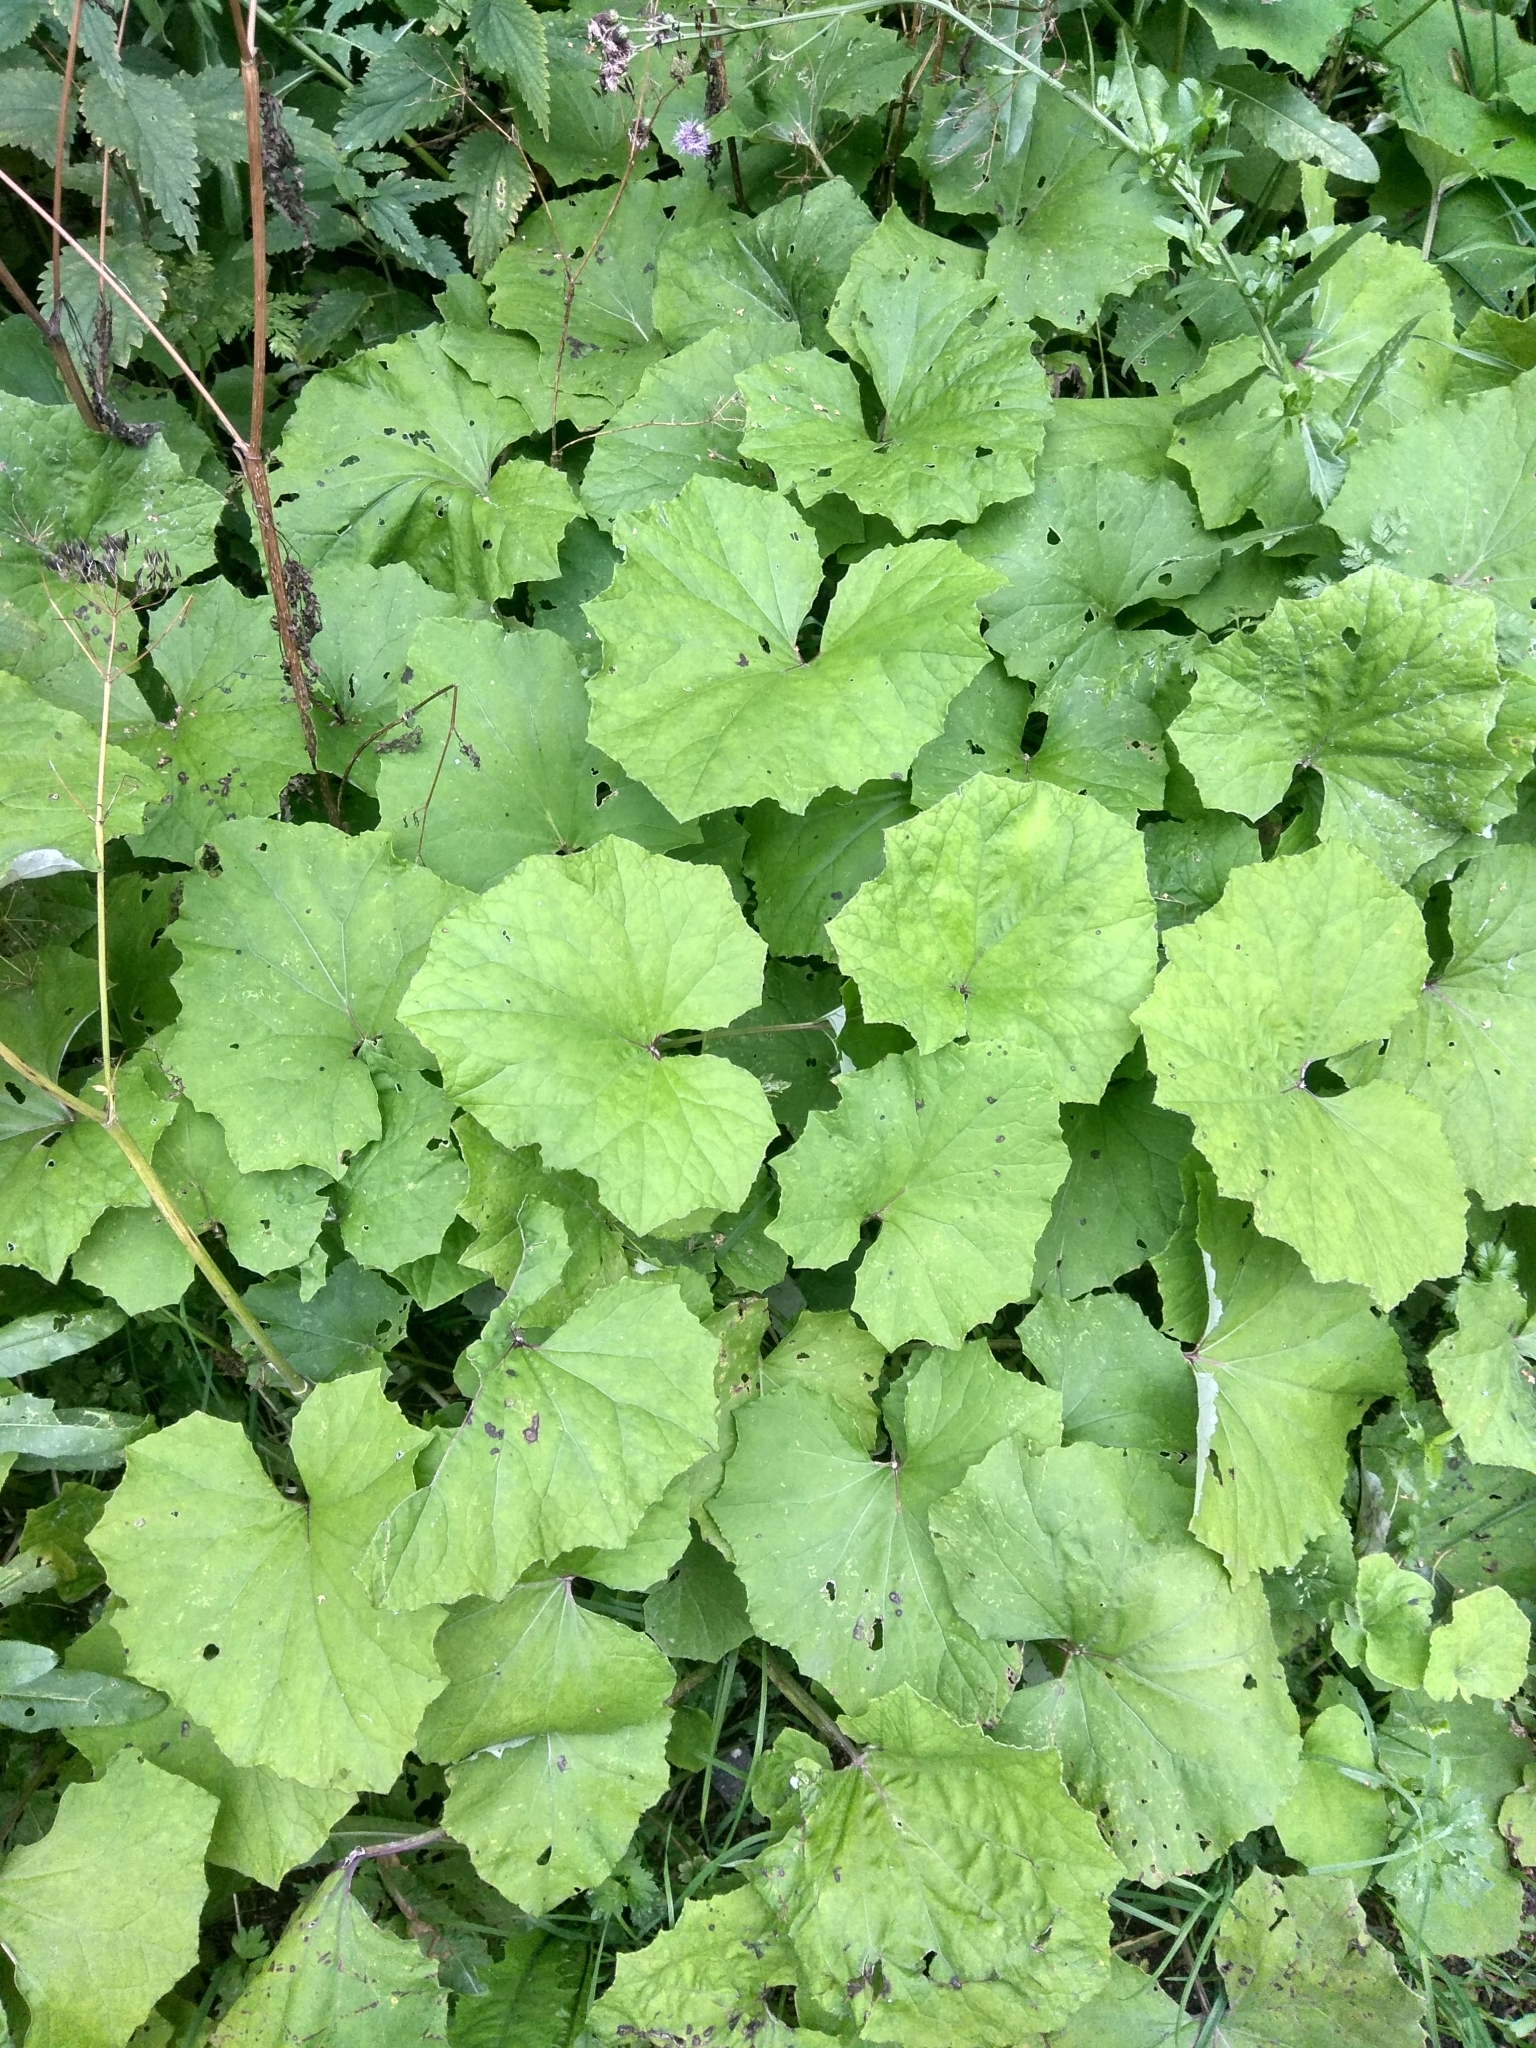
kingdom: Plantae
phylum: Tracheophyta
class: Magnoliopsida
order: Asterales
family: Asteraceae
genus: Tussilago
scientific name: Tussilago farfara
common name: Coltsfoot
